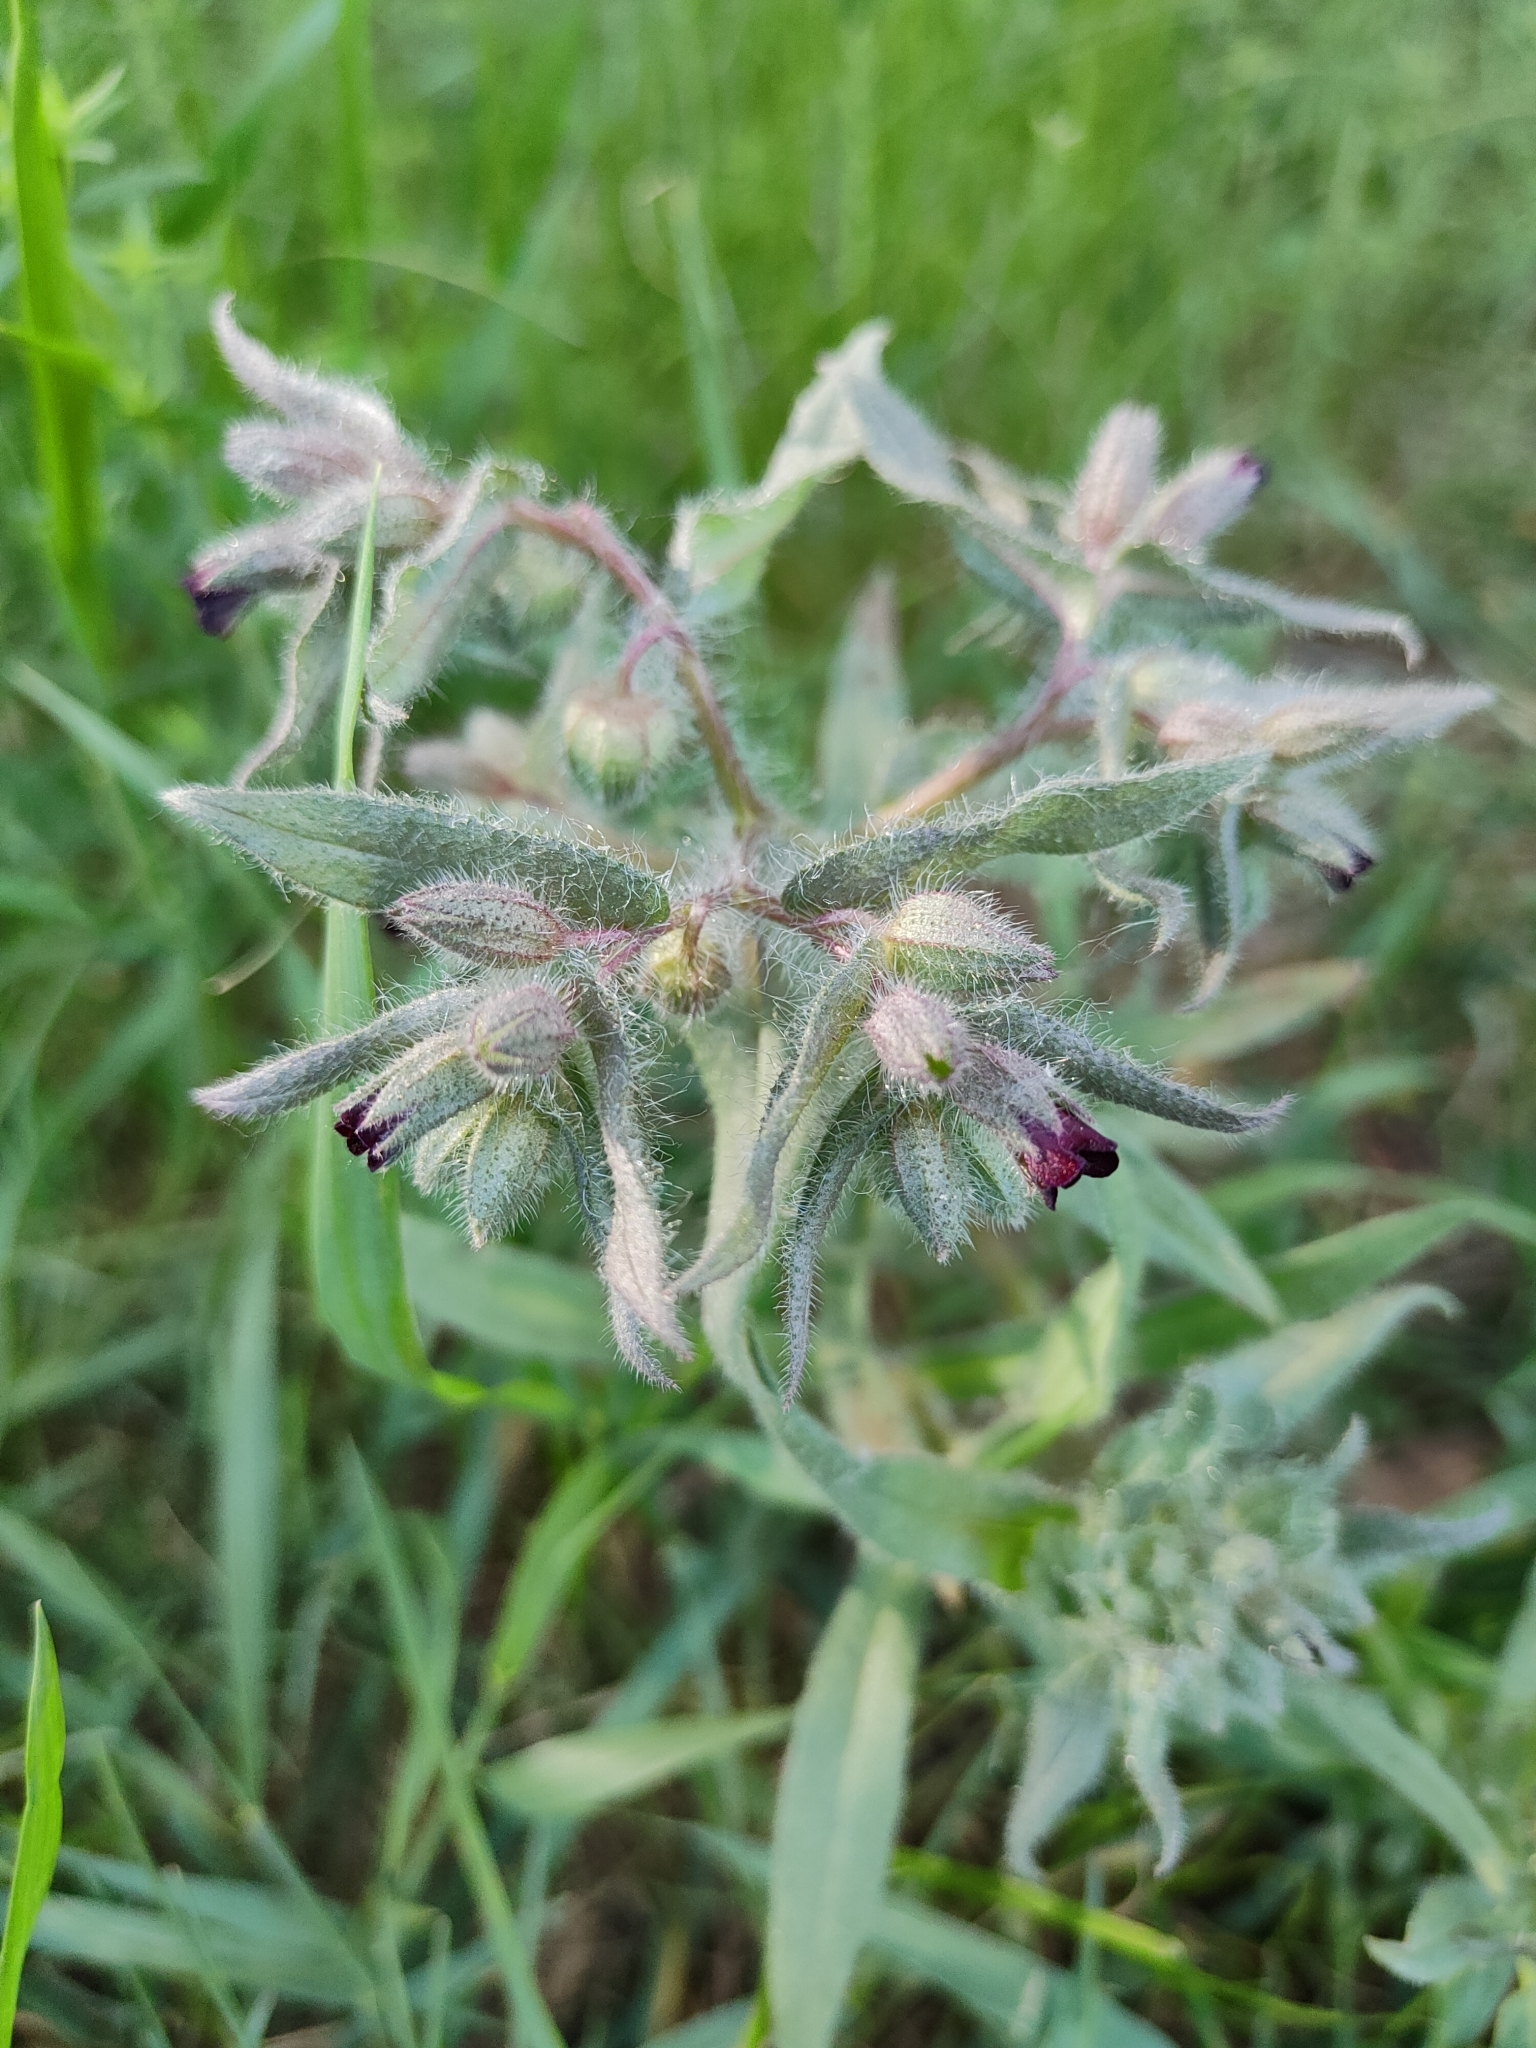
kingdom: Plantae
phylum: Tracheophyta
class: Magnoliopsida
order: Boraginales
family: Boraginaceae
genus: Nonea
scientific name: Nonea pulla
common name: Brown nonea
